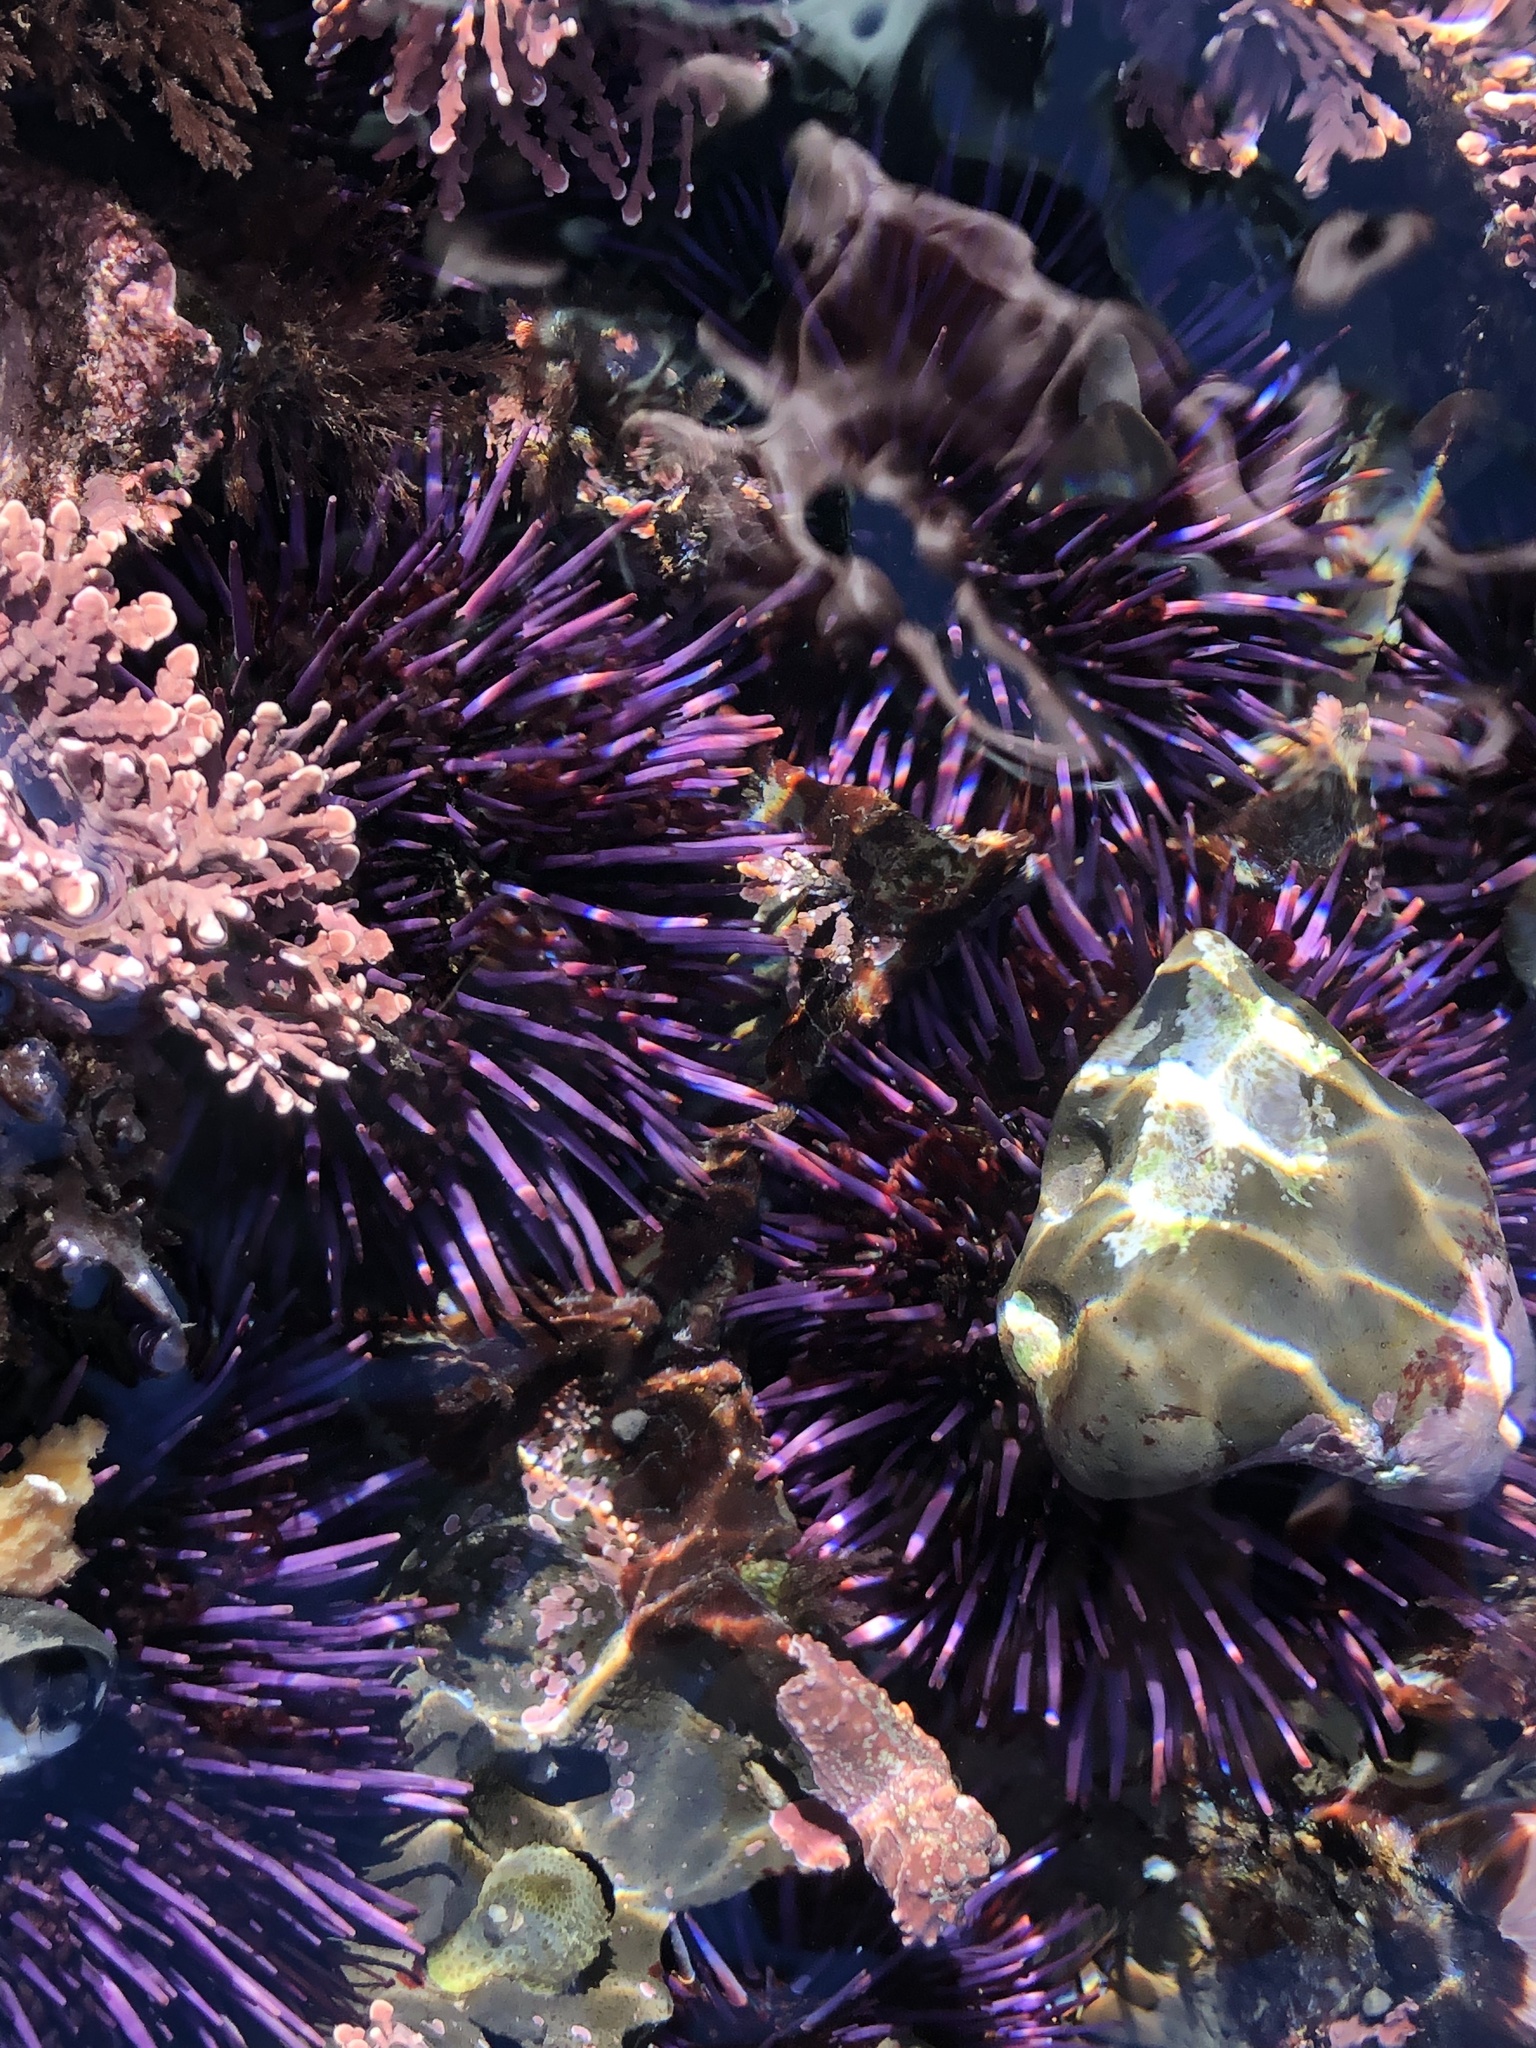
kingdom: Animalia
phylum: Echinodermata
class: Echinoidea
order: Camarodonta
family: Strongylocentrotidae
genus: Strongylocentrotus
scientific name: Strongylocentrotus purpuratus
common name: Purple sea urchin
